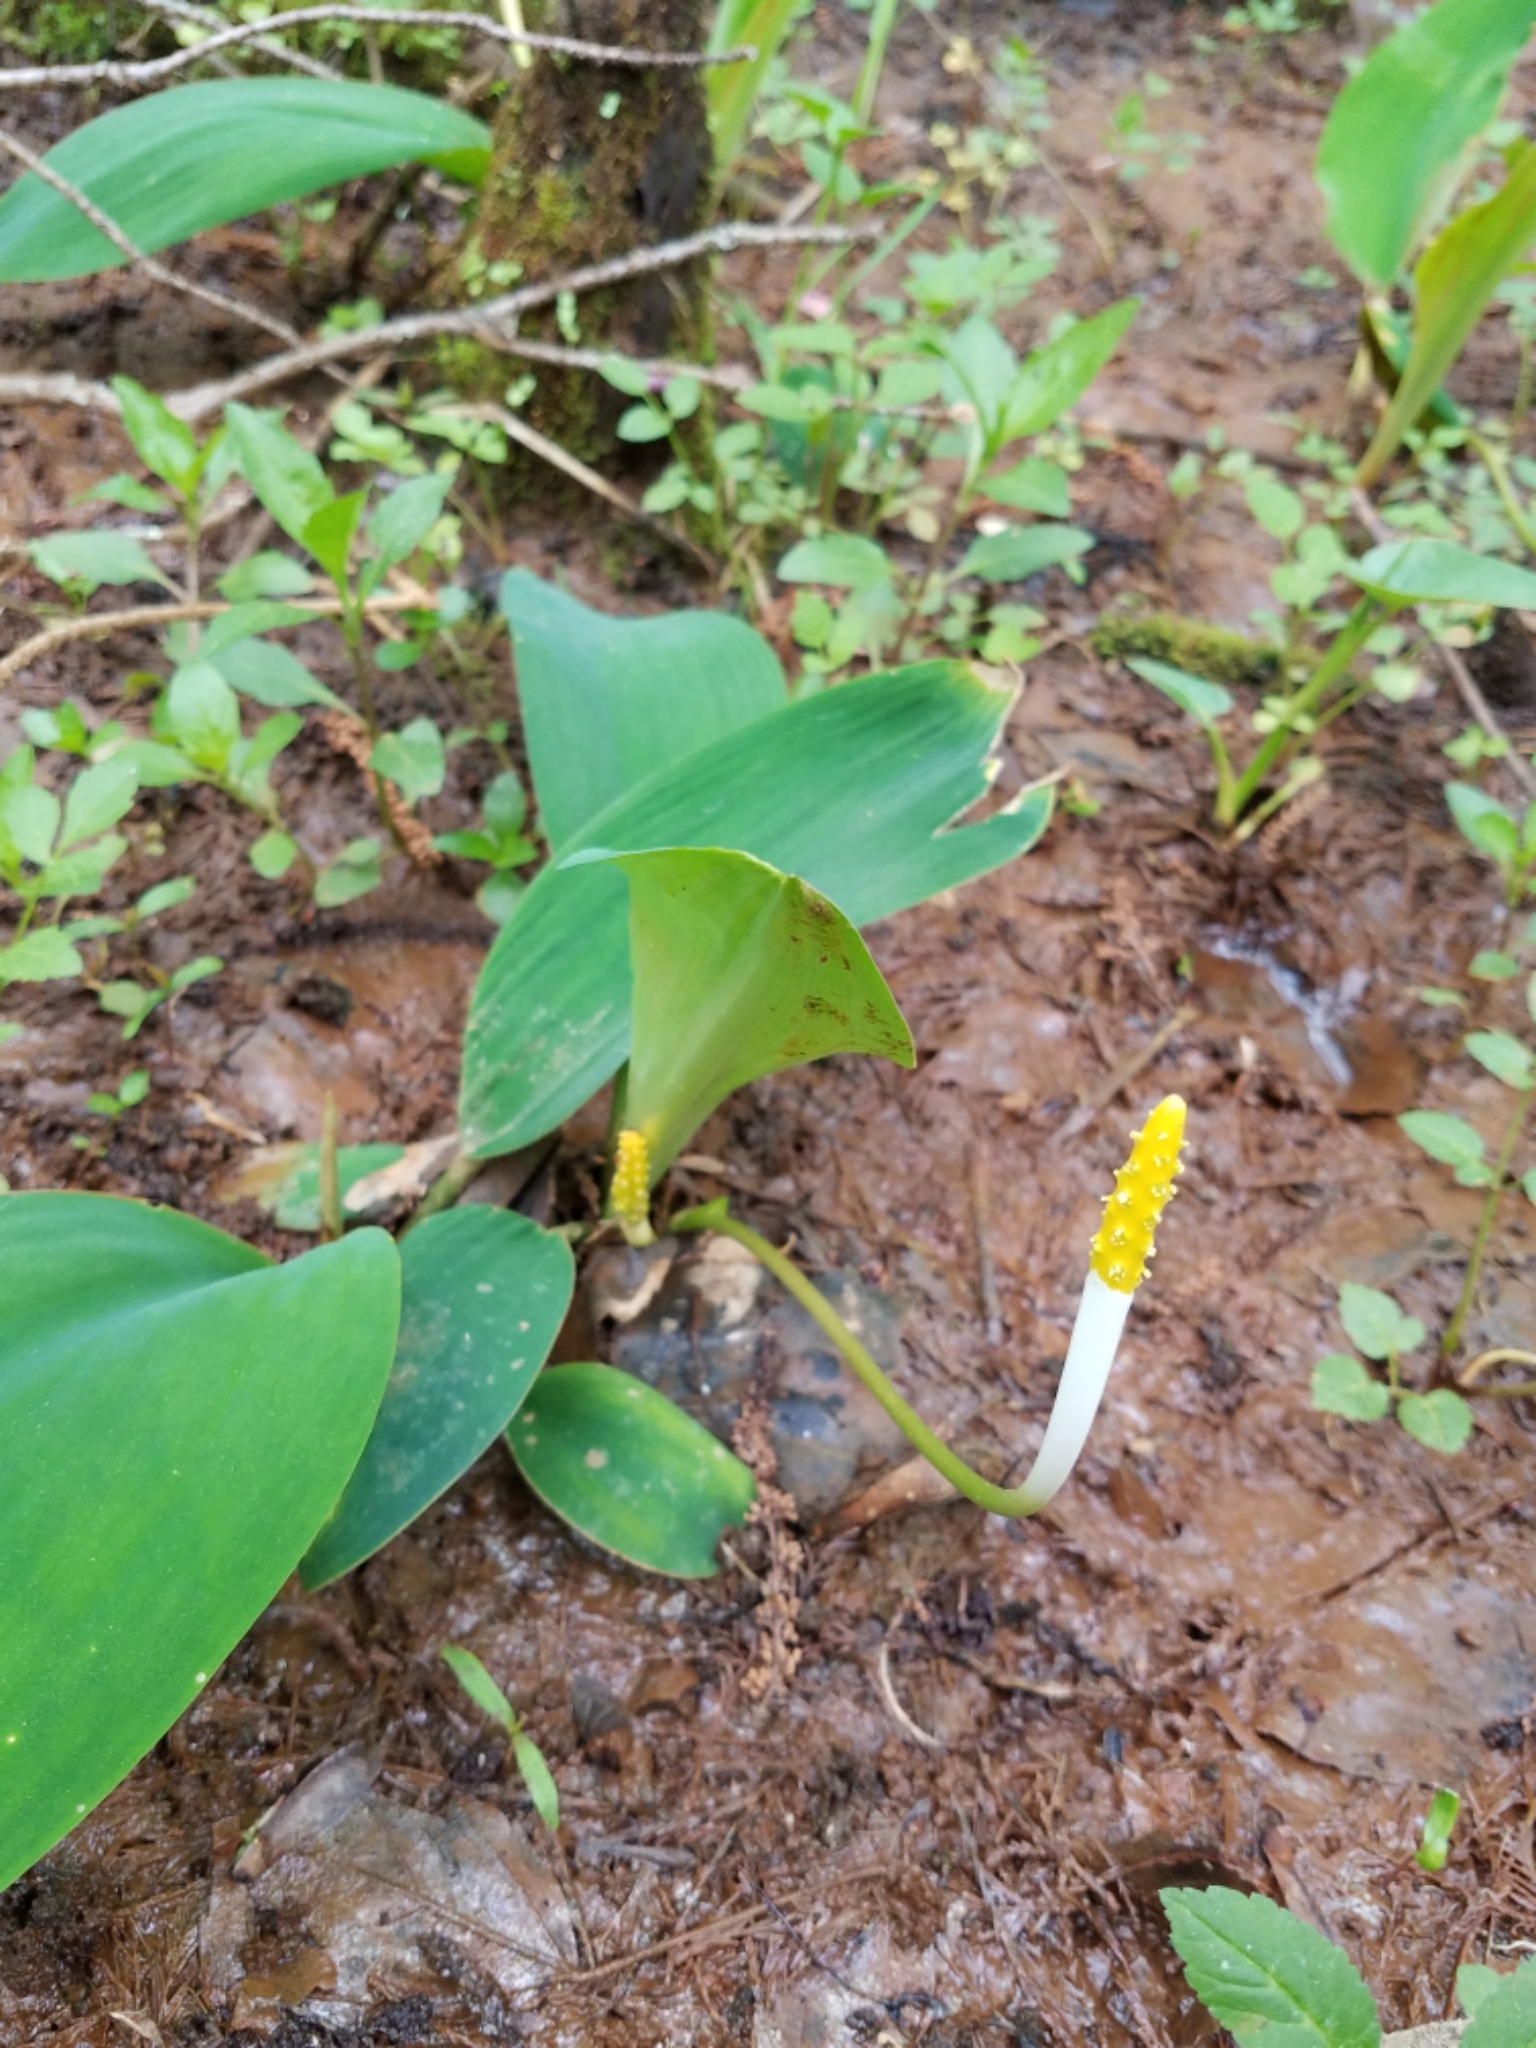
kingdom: Plantae
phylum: Tracheophyta
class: Liliopsida
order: Alismatales
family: Araceae
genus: Orontium
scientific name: Orontium aquaticum
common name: Golden-club
